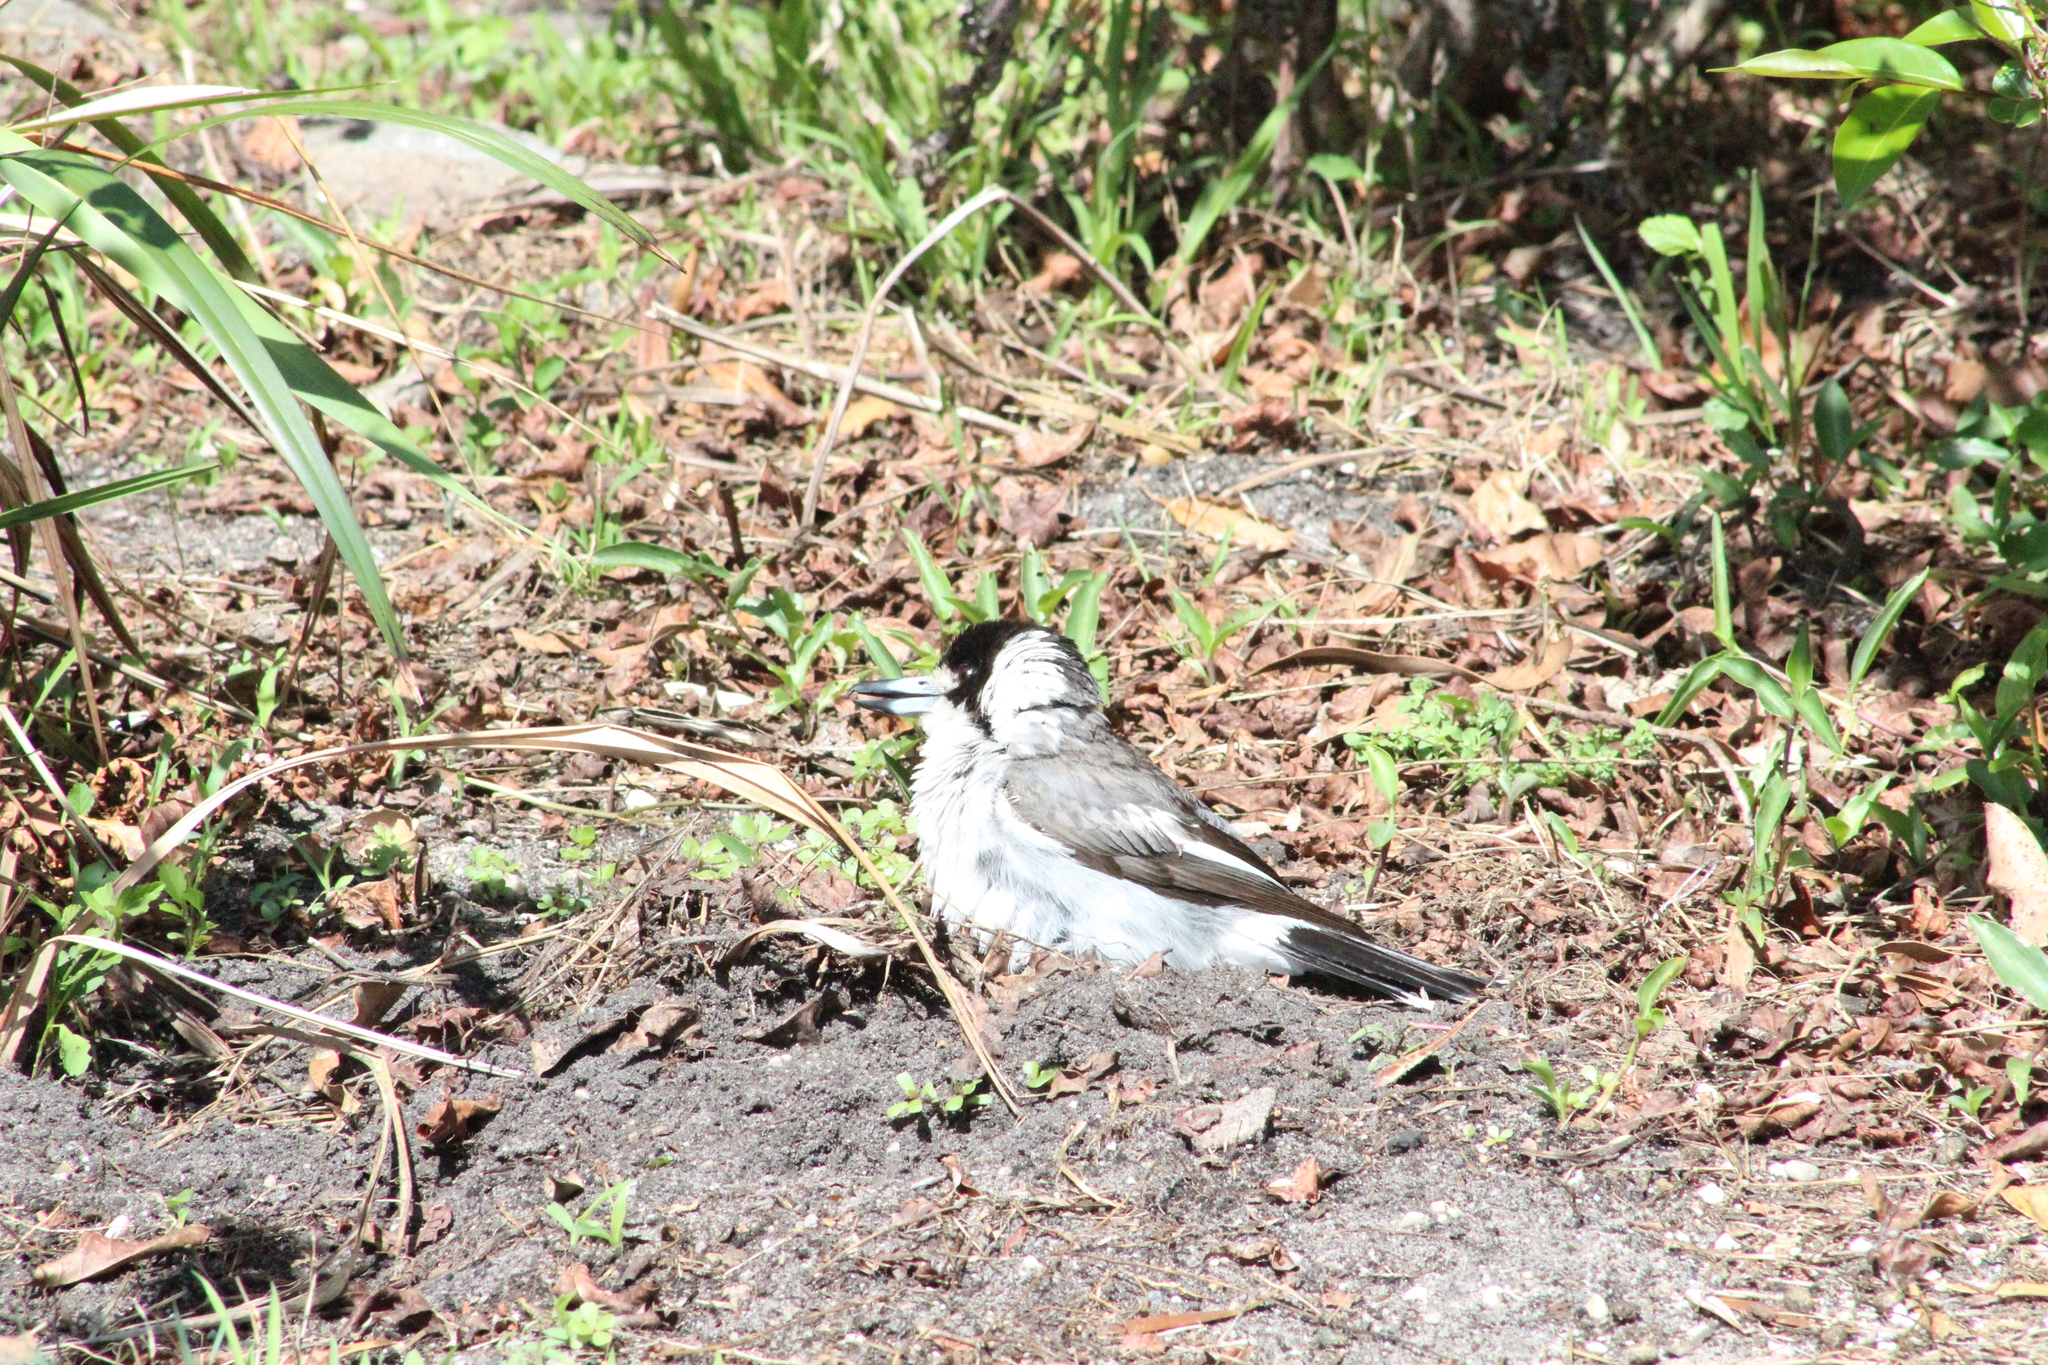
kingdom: Animalia
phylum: Chordata
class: Aves
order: Passeriformes
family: Cracticidae
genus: Cracticus
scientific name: Cracticus torquatus
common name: Grey butcherbird
